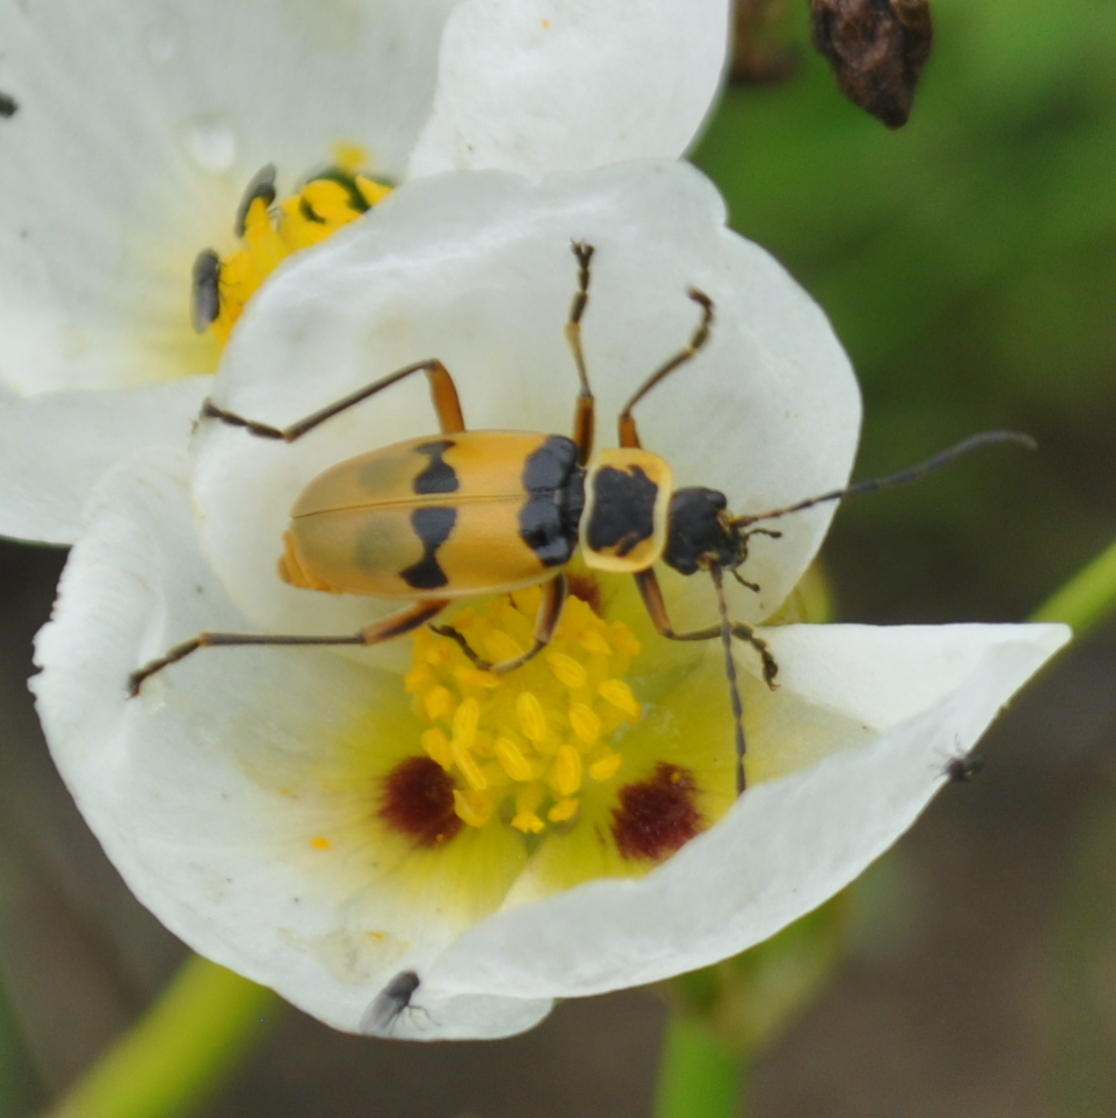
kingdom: Animalia
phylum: Arthropoda
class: Insecta
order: Coleoptera
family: Cantharidae
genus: Chauliognathus
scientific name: Chauliognathus
